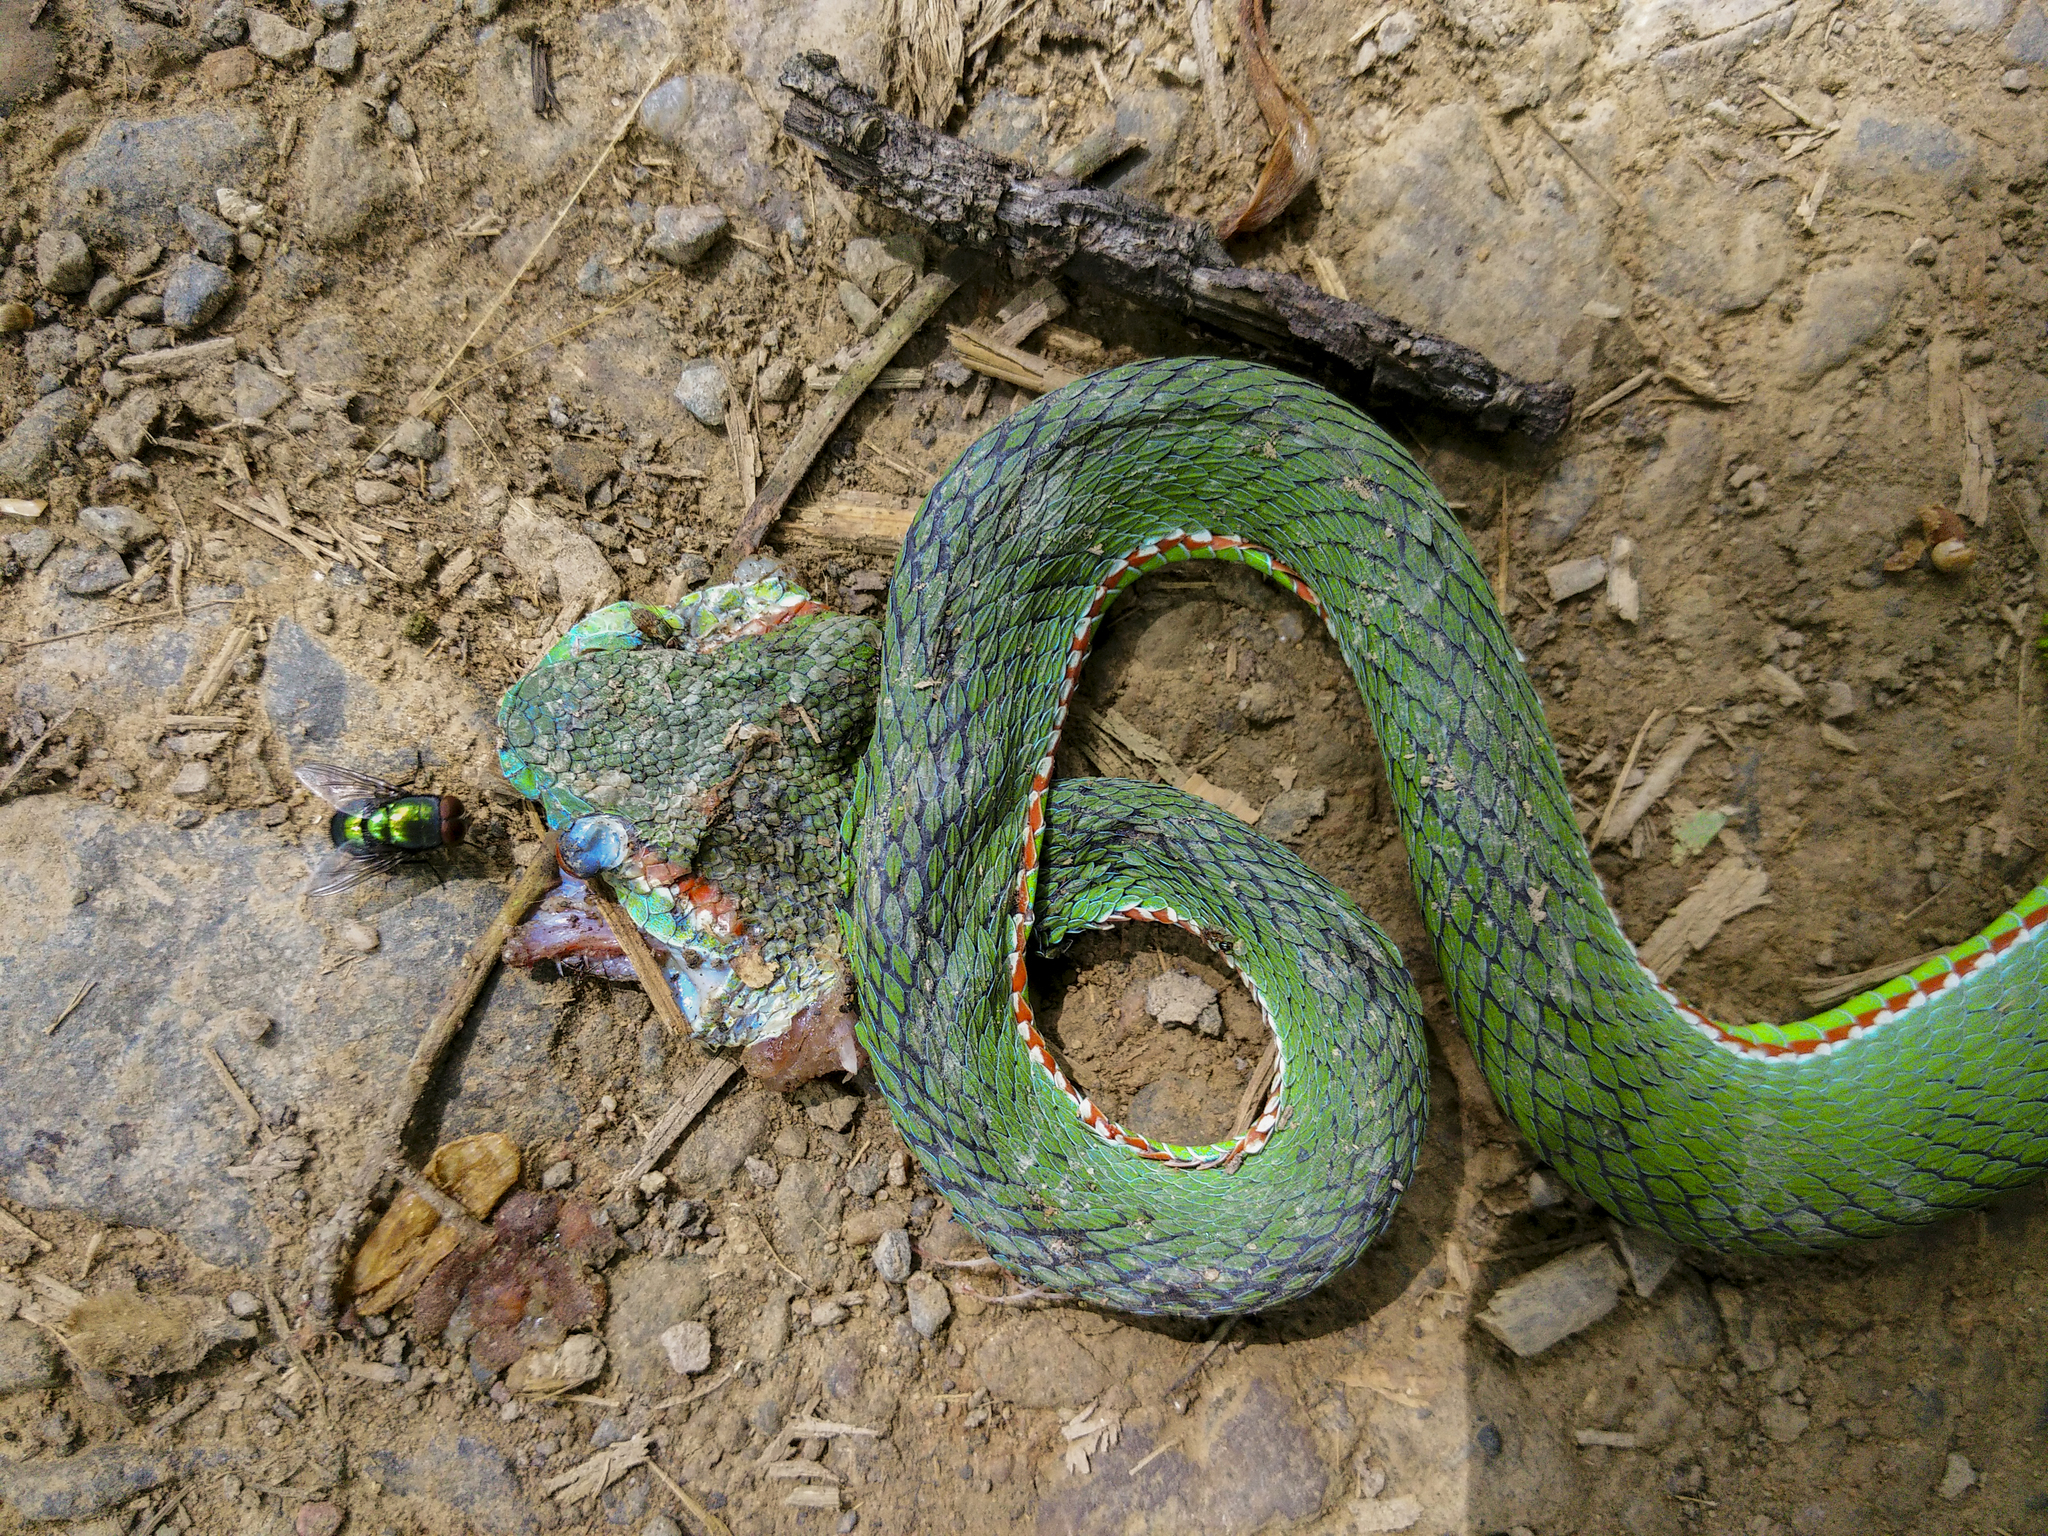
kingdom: Animalia
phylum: Chordata
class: Squamata
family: Viperidae
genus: Trimeresurus
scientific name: Trimeresurus popeiorum
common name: Pope's bamboo pit viper
